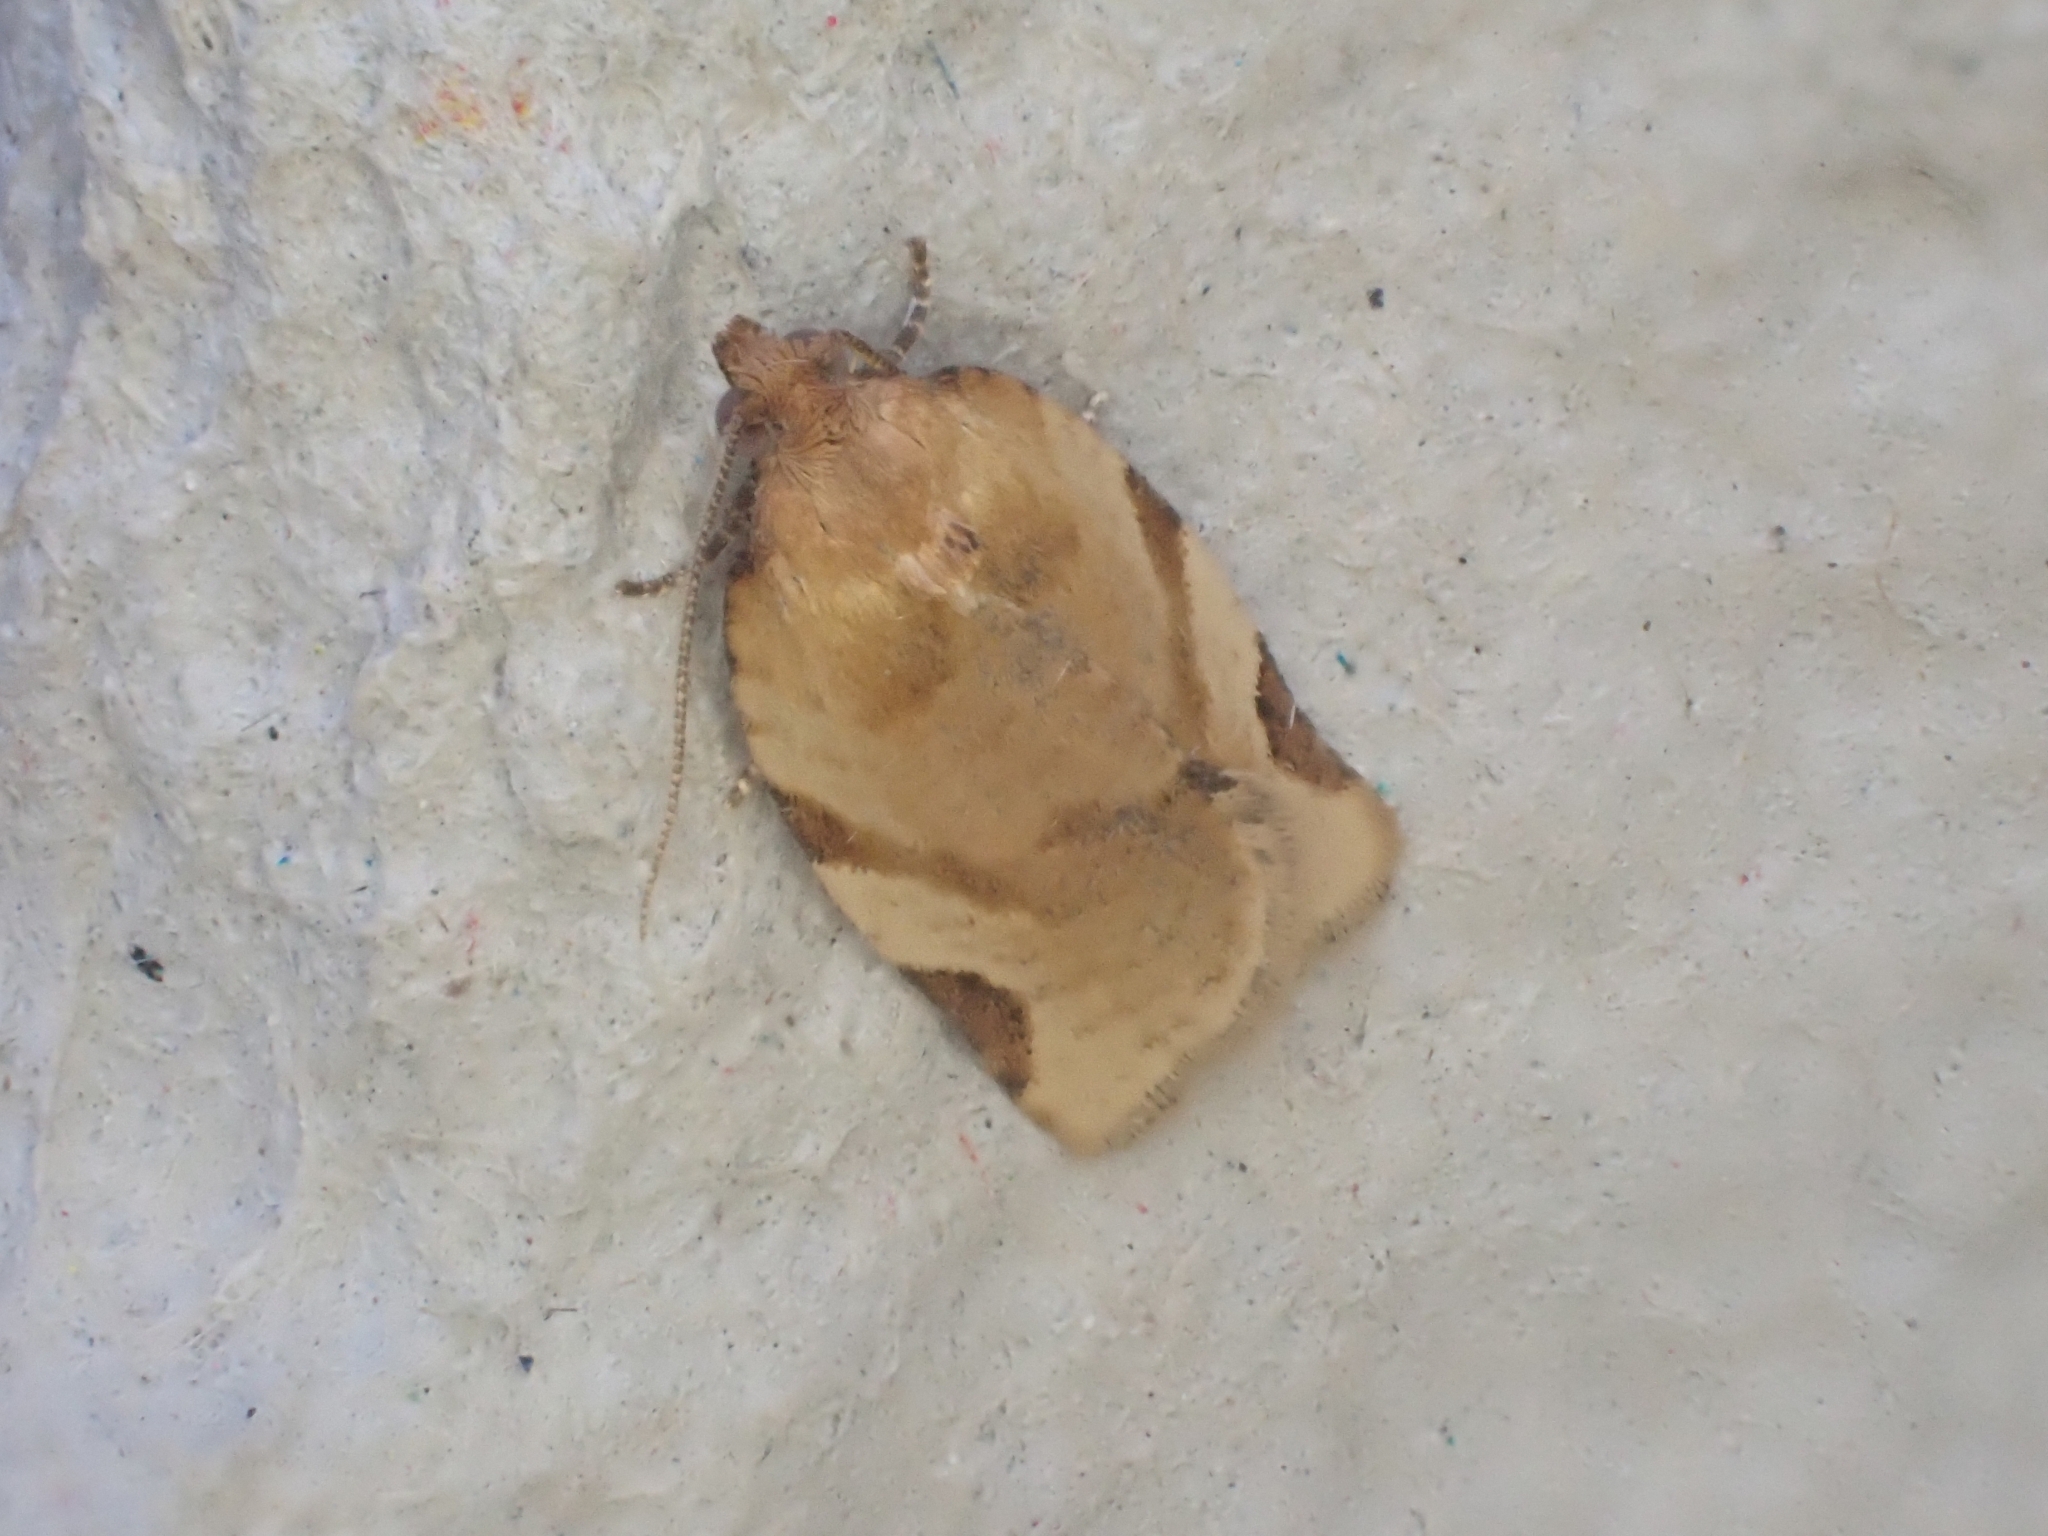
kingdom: Animalia
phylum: Arthropoda
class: Insecta
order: Lepidoptera
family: Tortricidae
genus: Paramesia
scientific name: Paramesia gnomana
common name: Small straw twist
